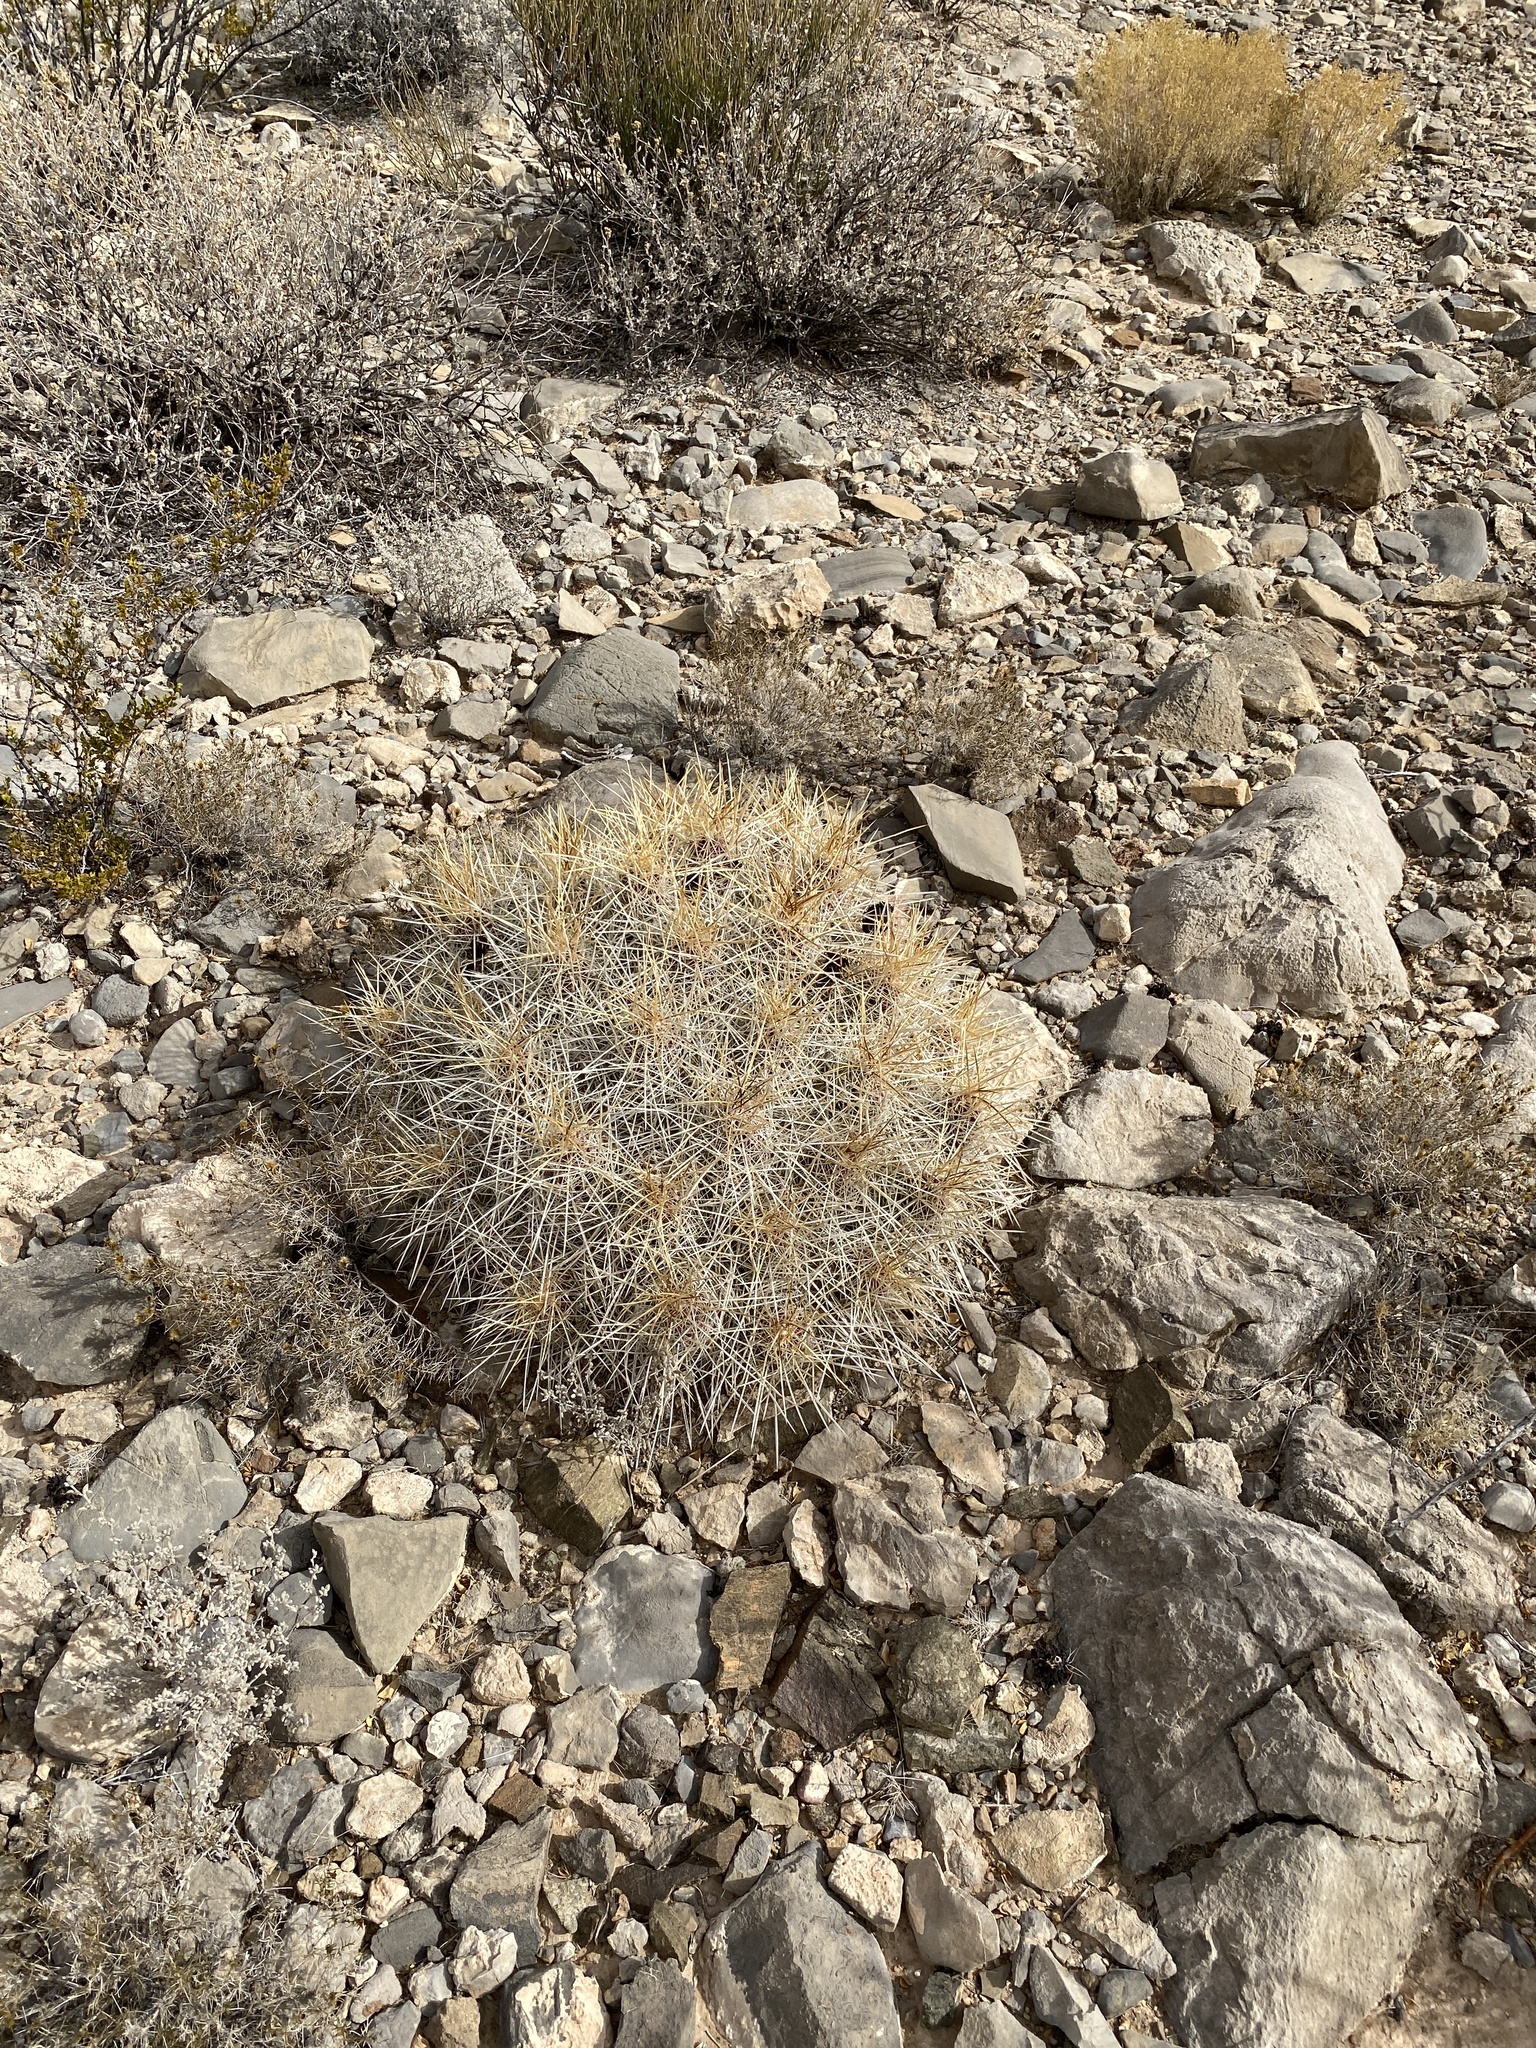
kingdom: Plantae
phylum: Tracheophyta
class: Magnoliopsida
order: Caryophyllales
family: Cactaceae
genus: Echinocereus
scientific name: Echinocereus stramineus
